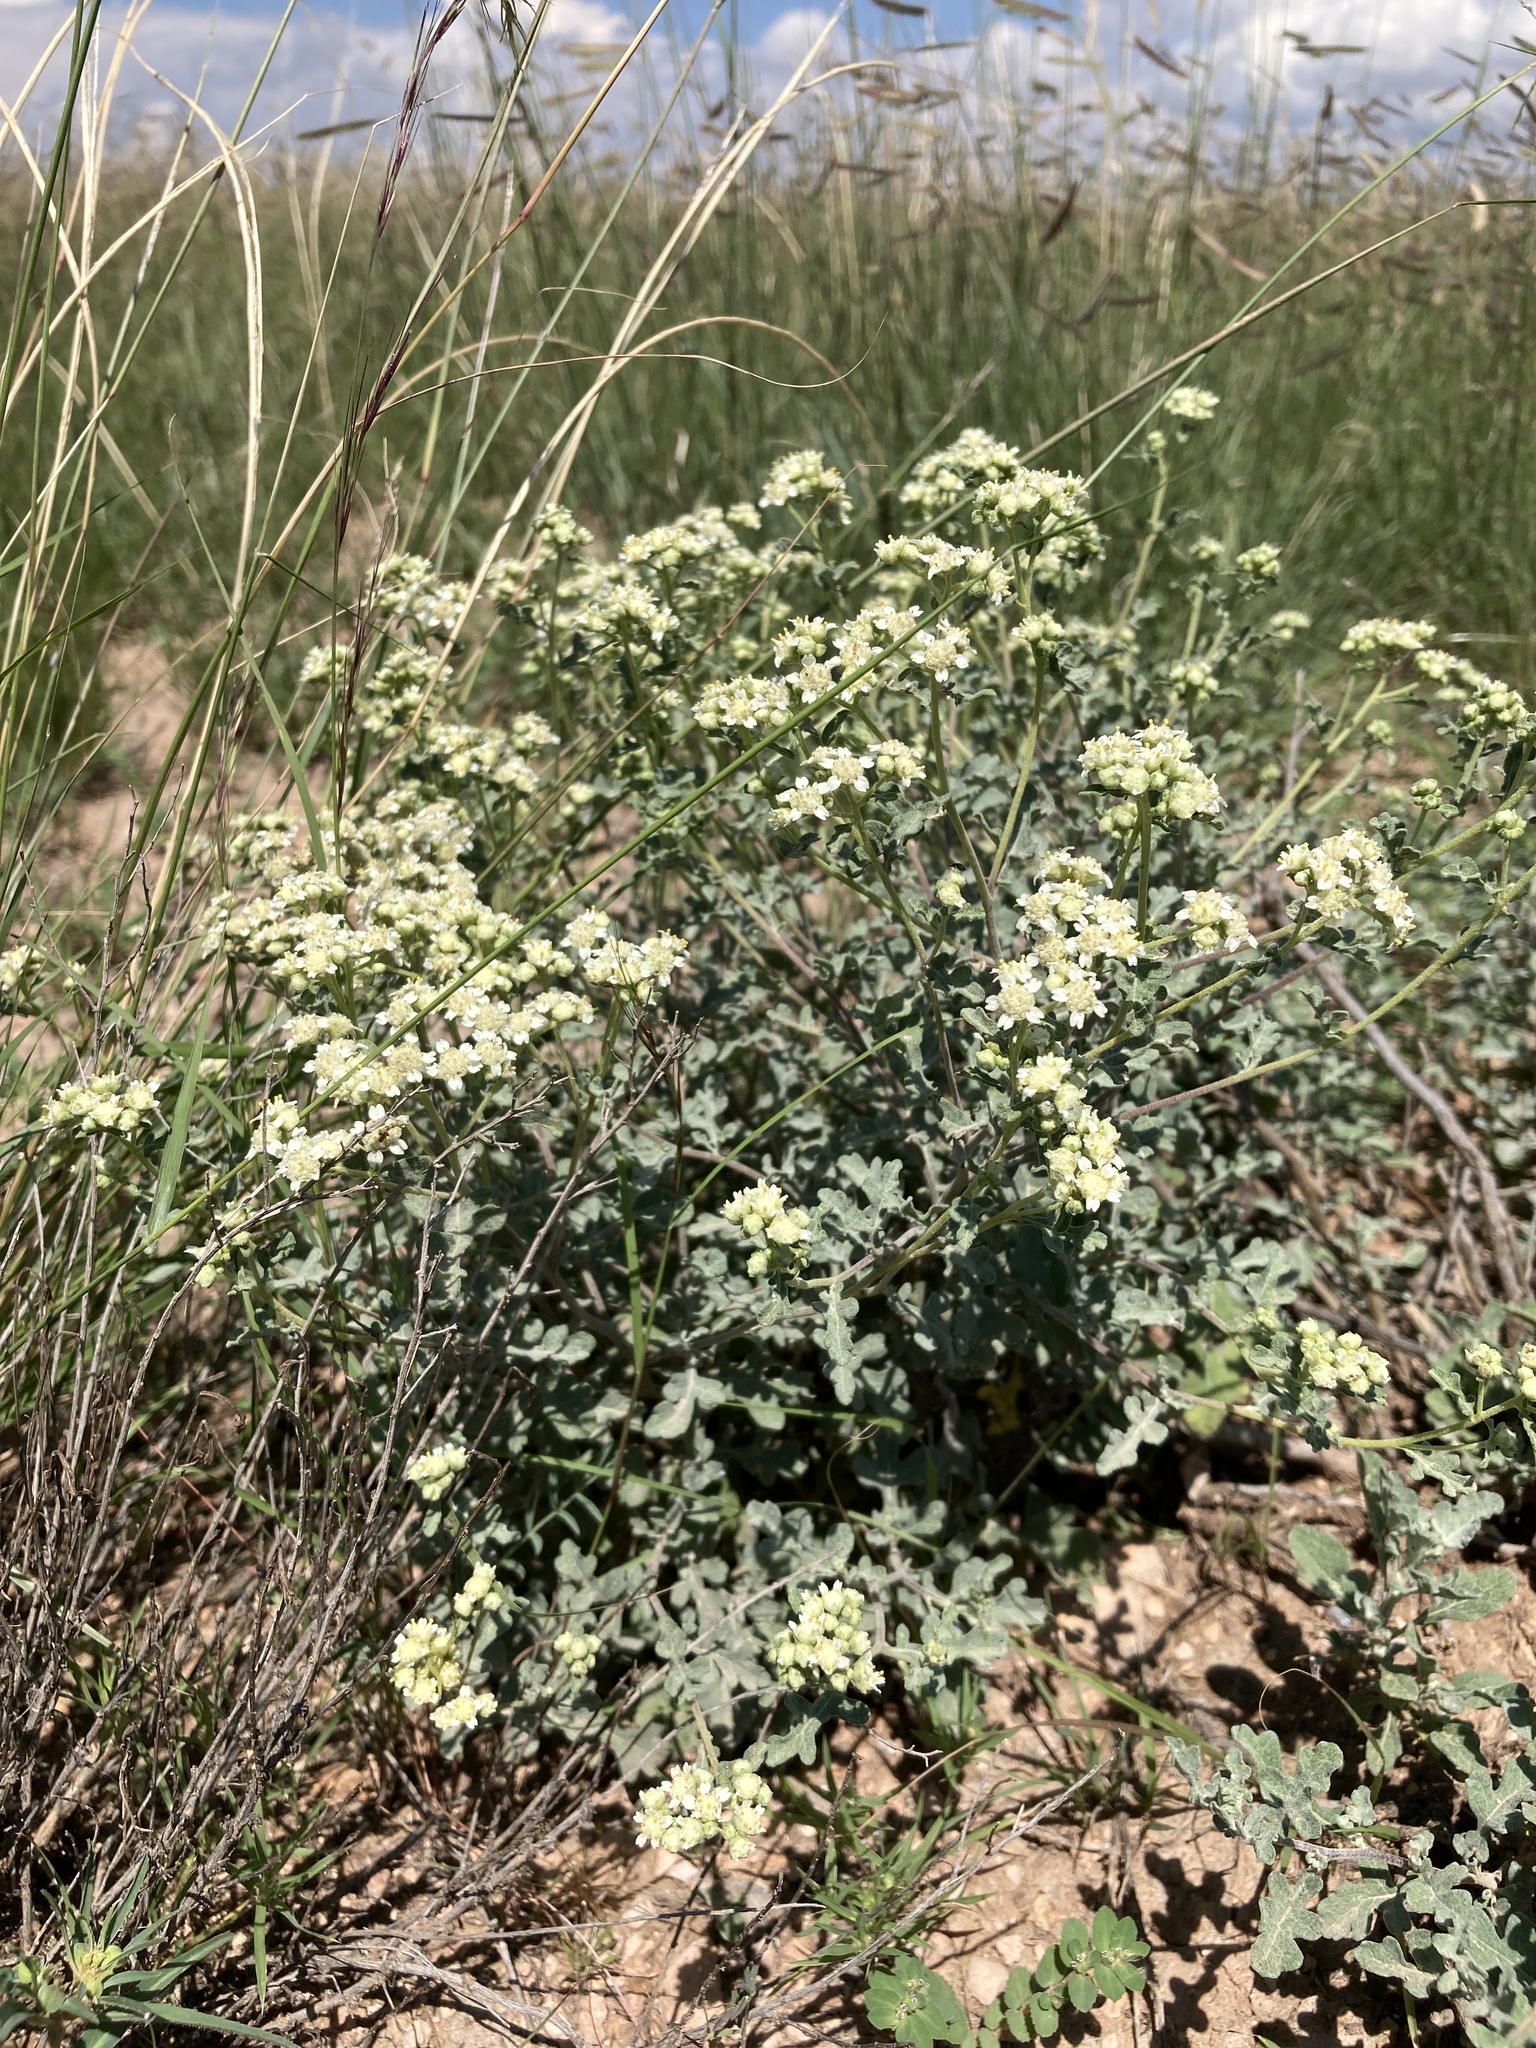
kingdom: Plantae
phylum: Tracheophyta
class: Magnoliopsida
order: Asterales
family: Asteraceae
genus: Parthenium
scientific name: Parthenium incanum
